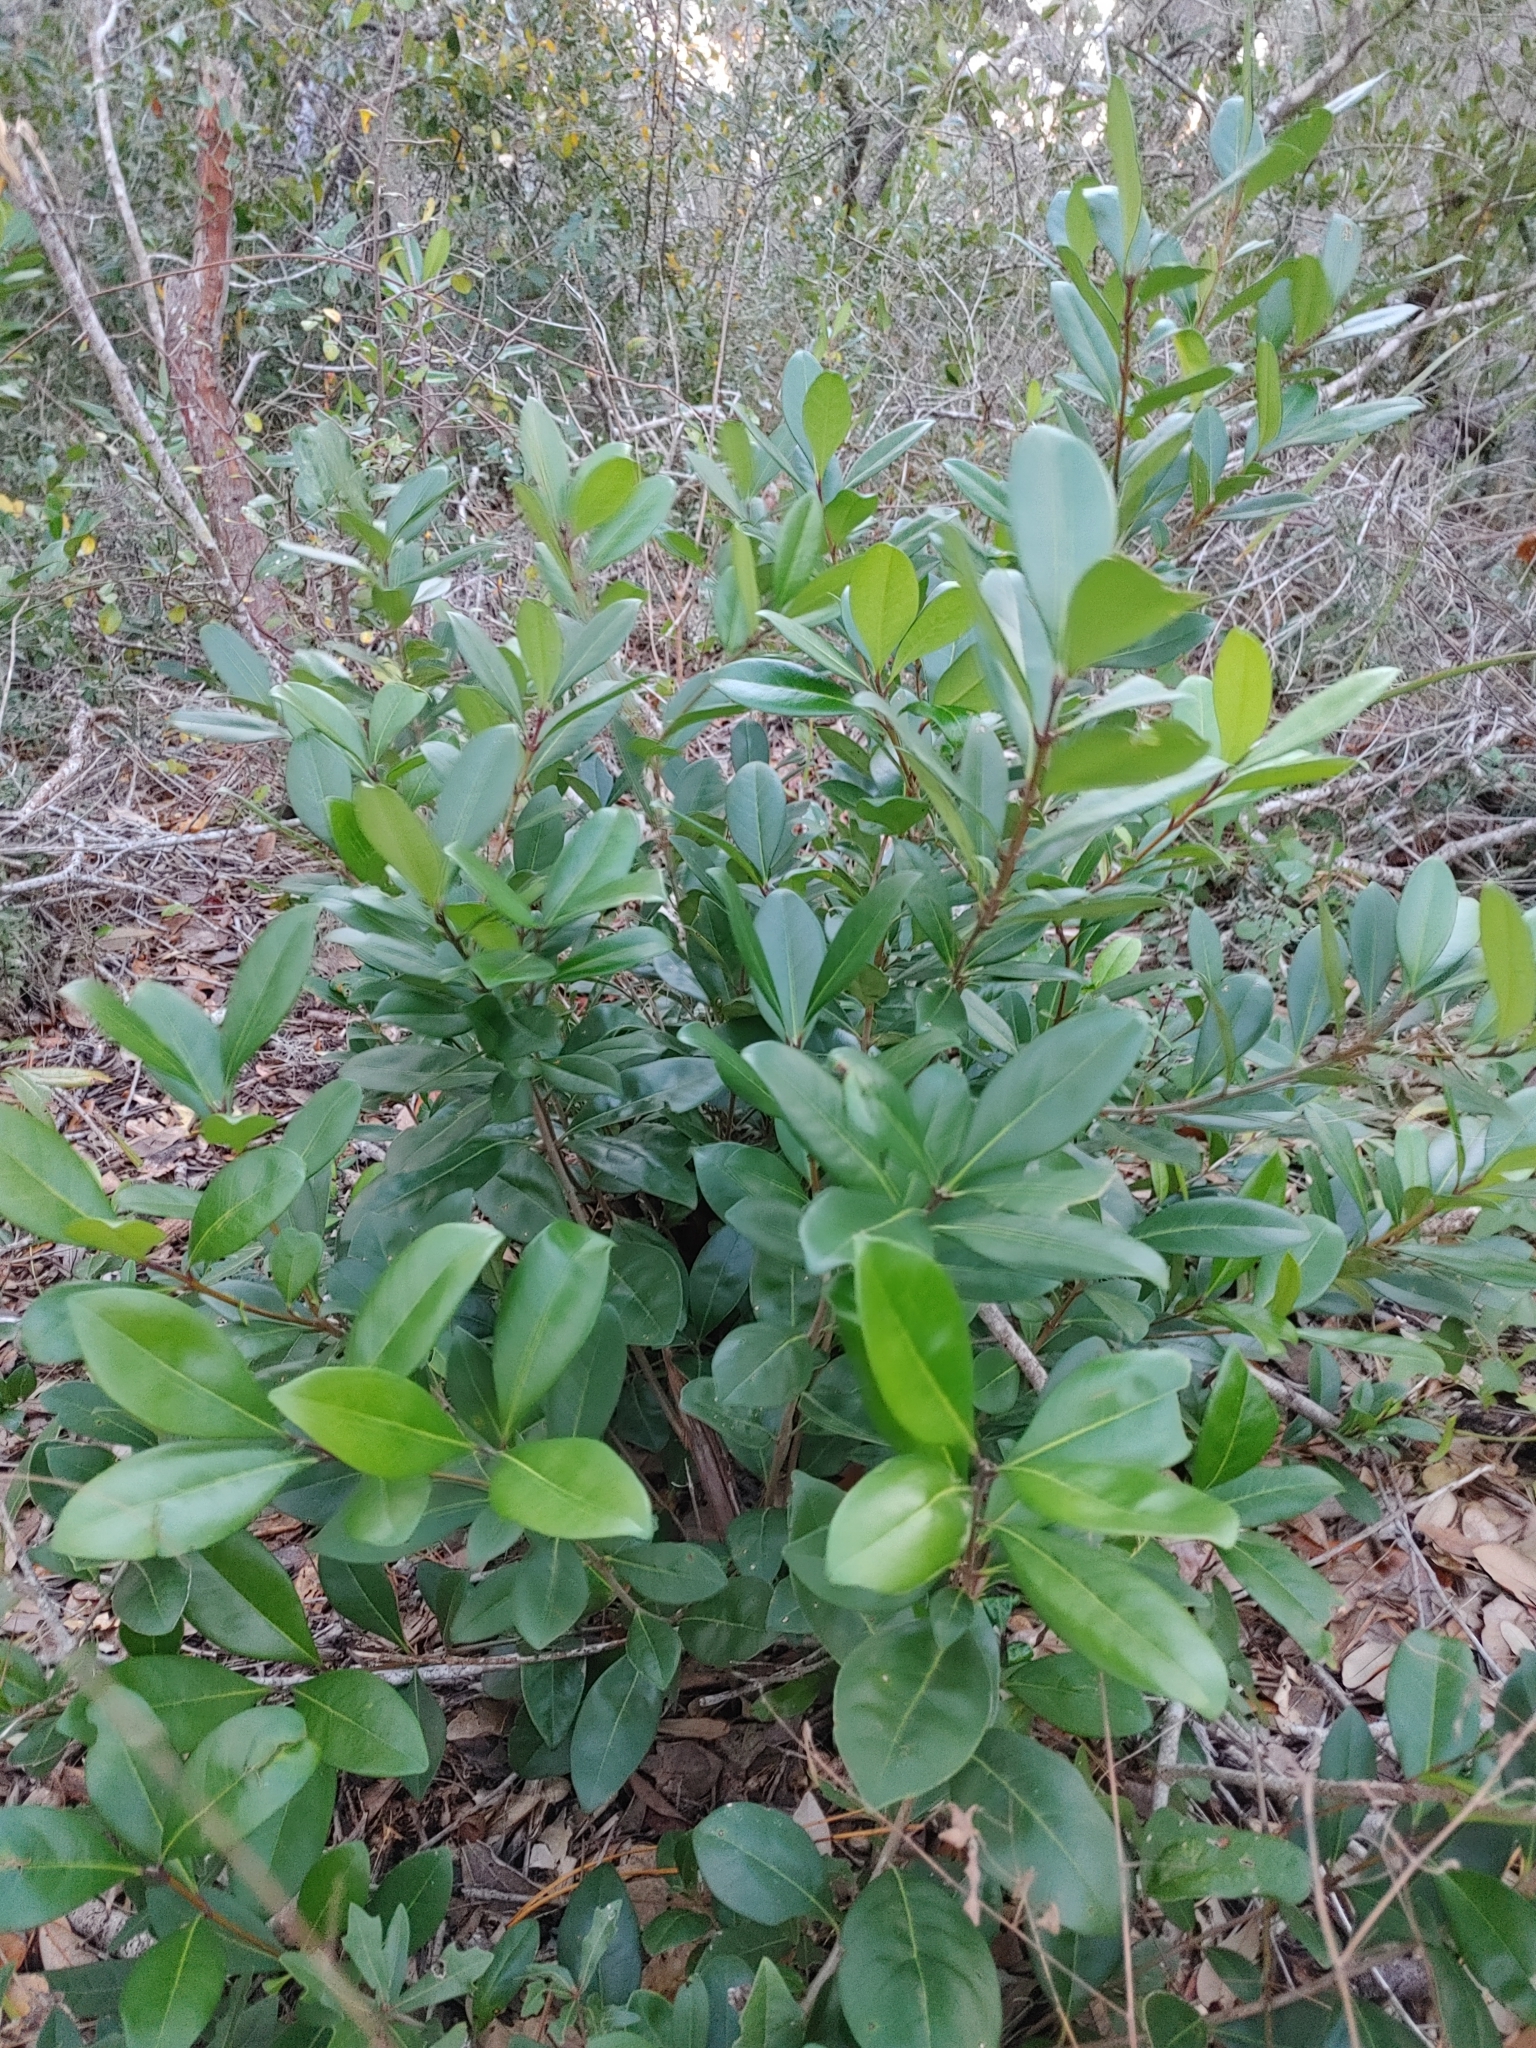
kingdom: Plantae
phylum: Tracheophyta
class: Magnoliopsida
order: Lamiales
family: Oleaceae
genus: Cartrema
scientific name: Cartrema americana
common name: Devilwood
